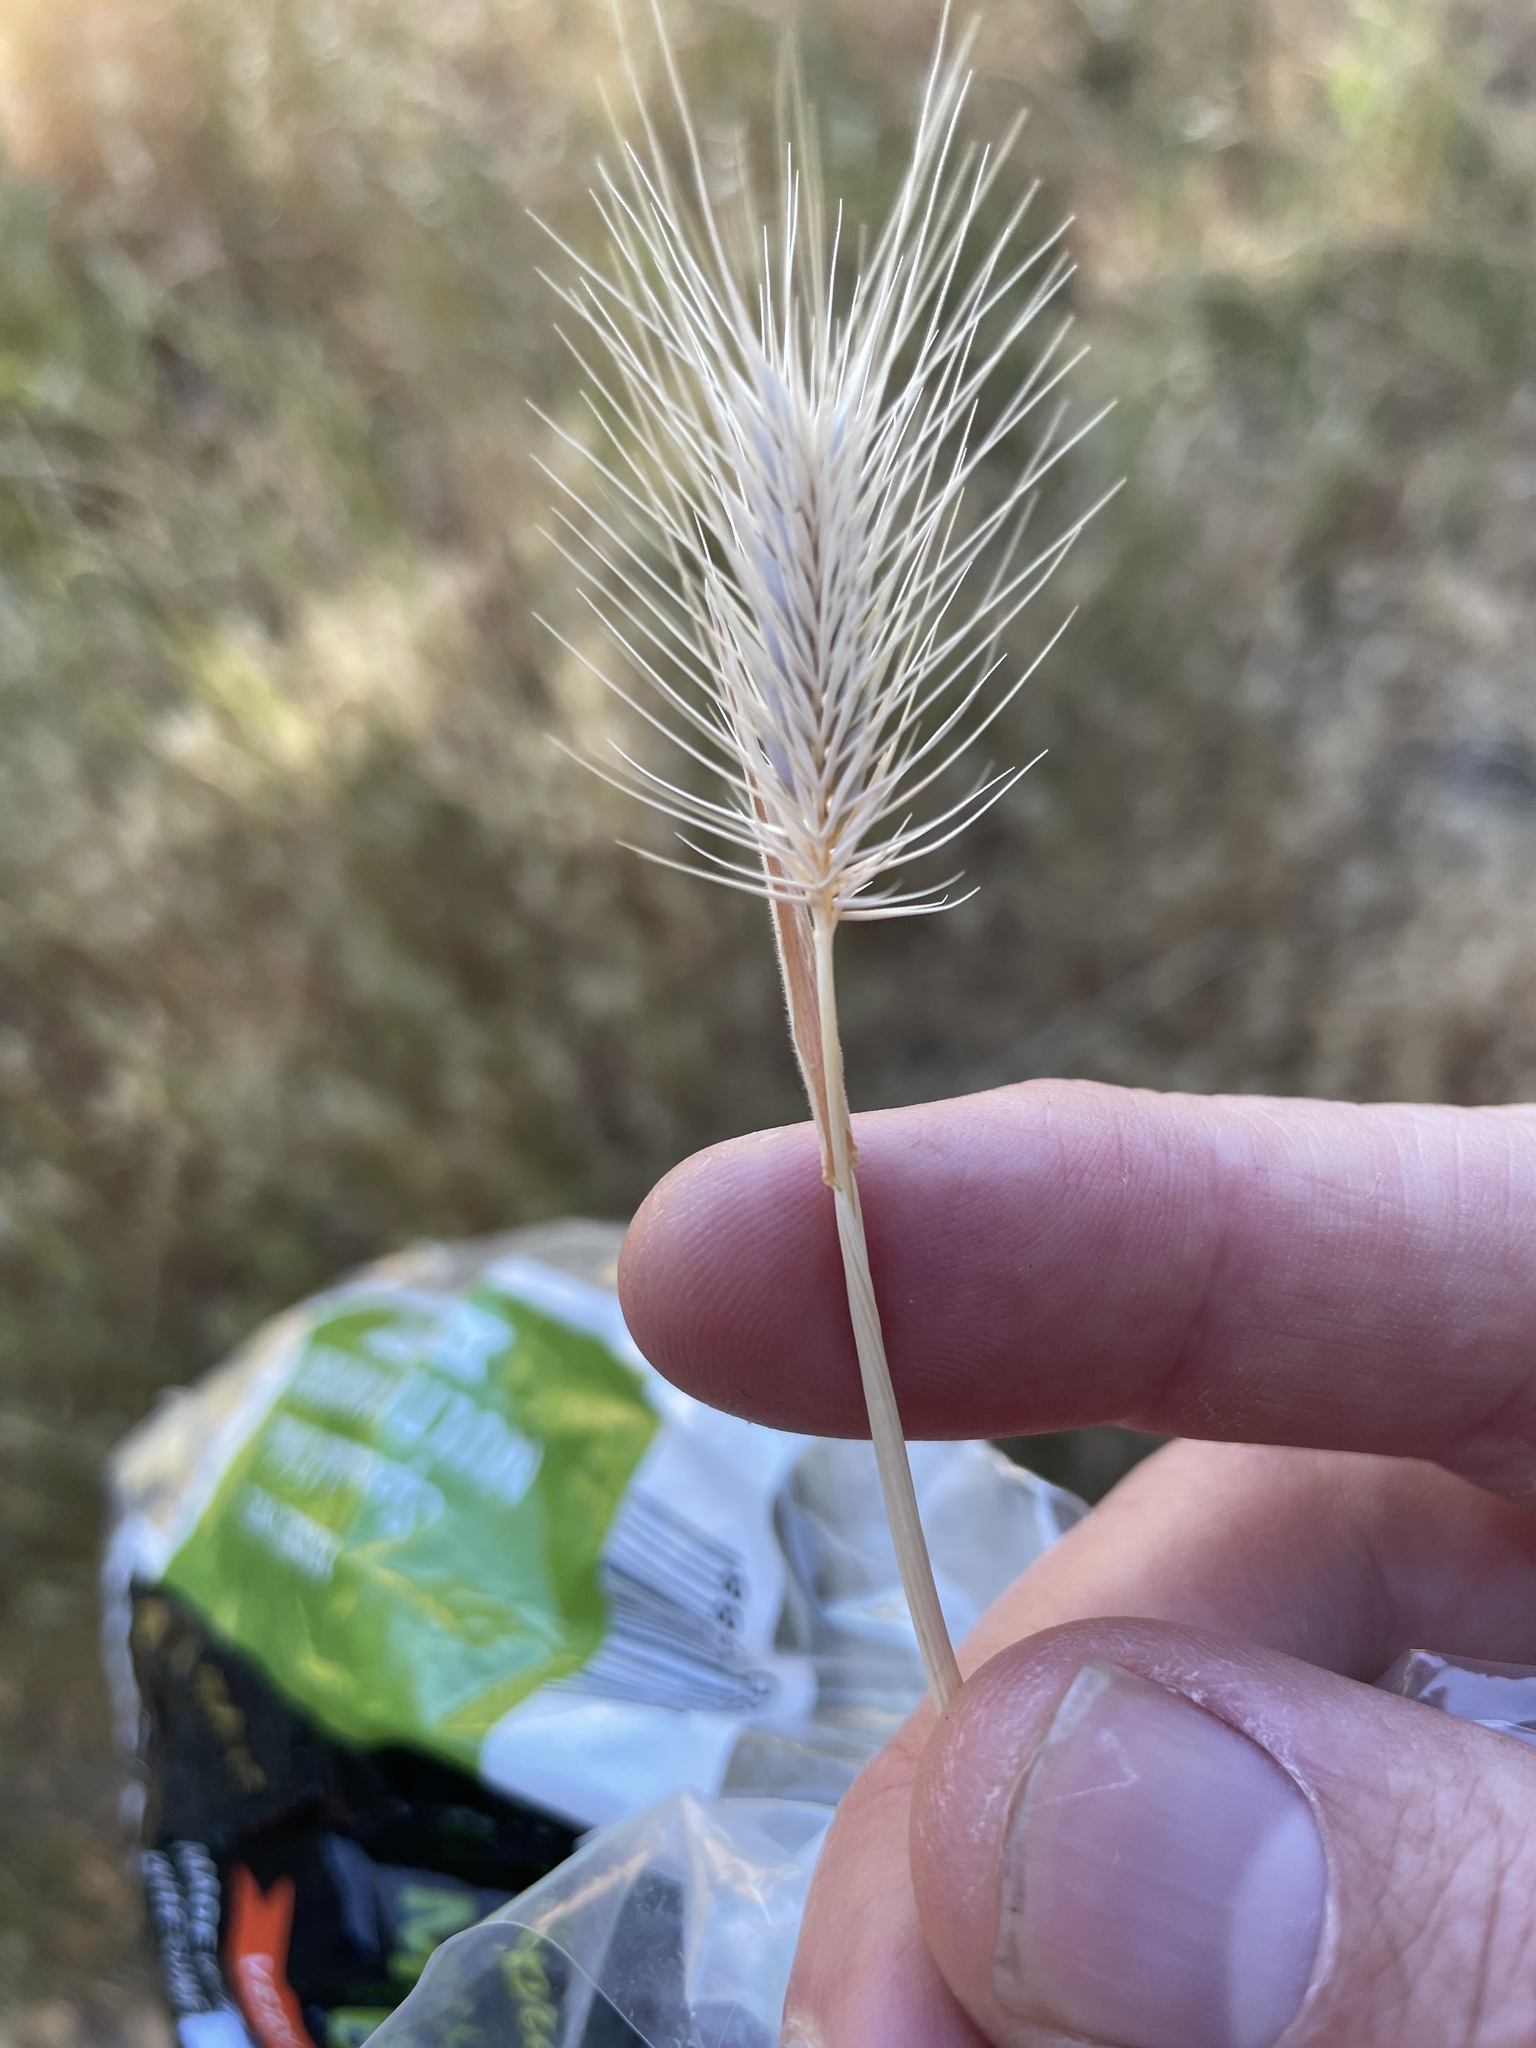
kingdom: Plantae
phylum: Tracheophyta
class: Liliopsida
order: Poales
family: Poaceae
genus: Hordeum
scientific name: Hordeum marinum
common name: Sea barley
